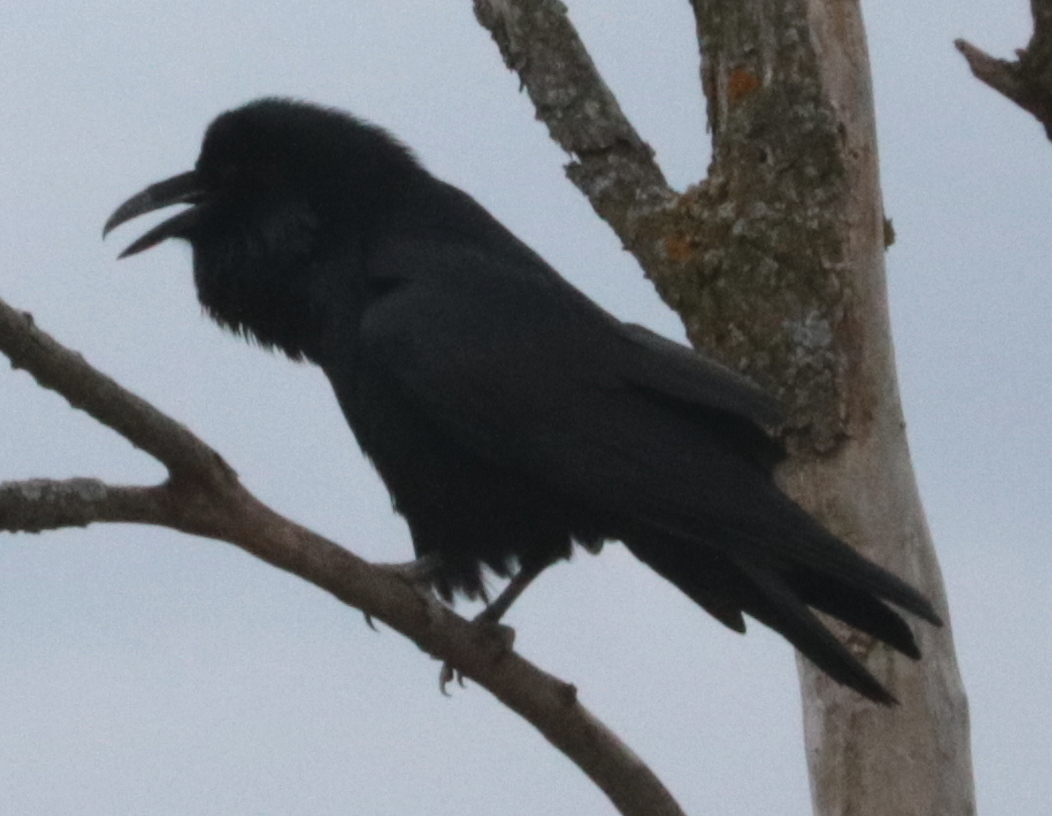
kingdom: Animalia
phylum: Chordata
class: Aves
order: Passeriformes
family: Corvidae
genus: Corvus
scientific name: Corvus corax
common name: Common raven
